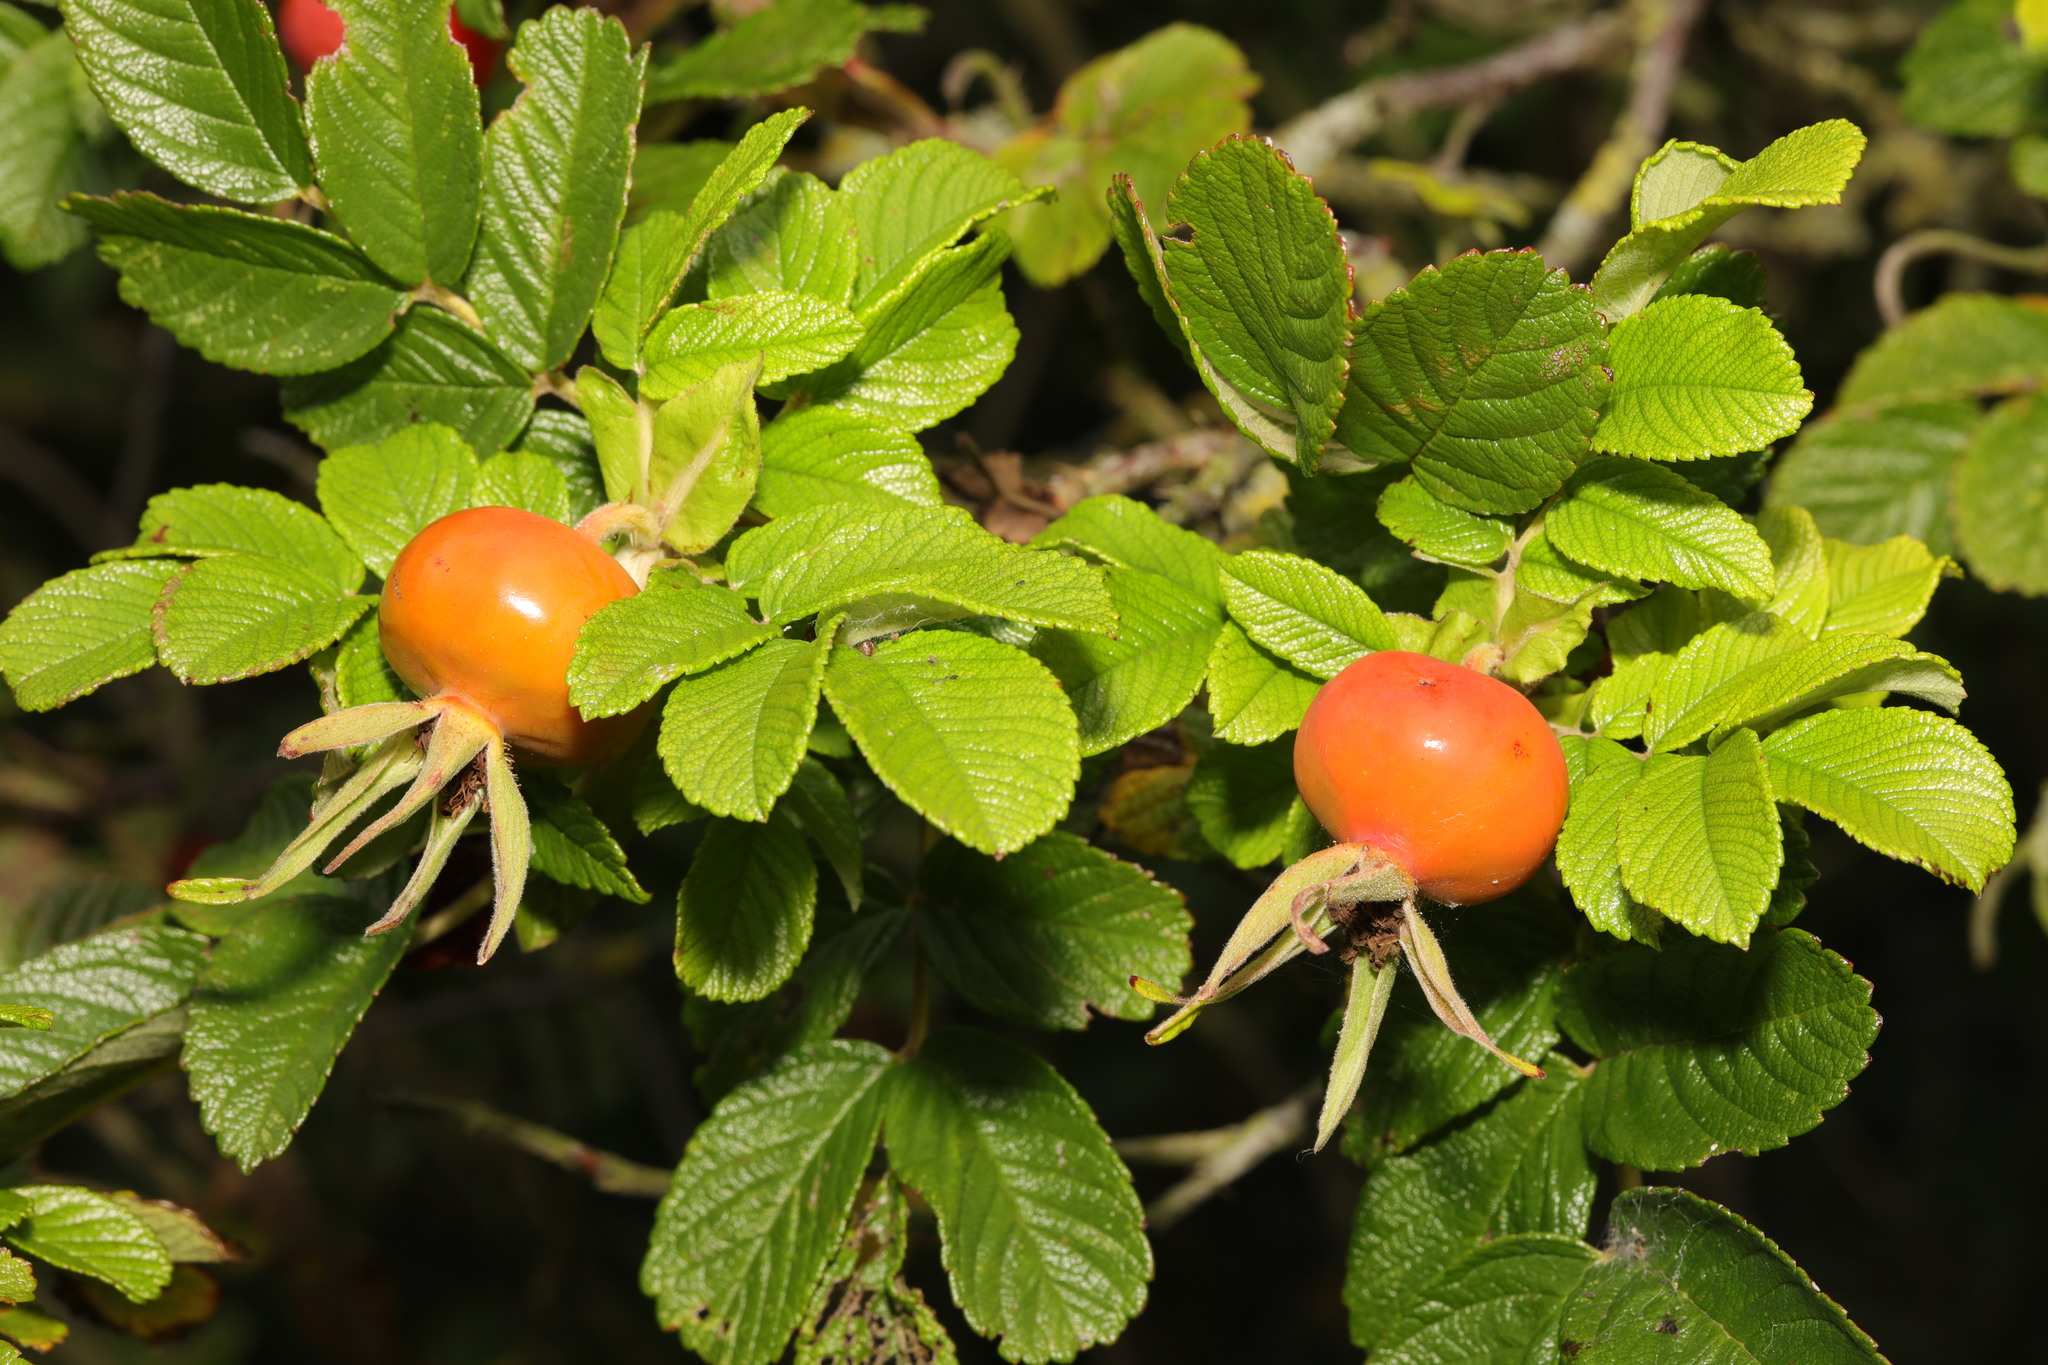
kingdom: Plantae
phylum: Tracheophyta
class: Magnoliopsida
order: Rosales
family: Rosaceae
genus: Rosa
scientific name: Rosa rugosa
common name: Japanese rose
